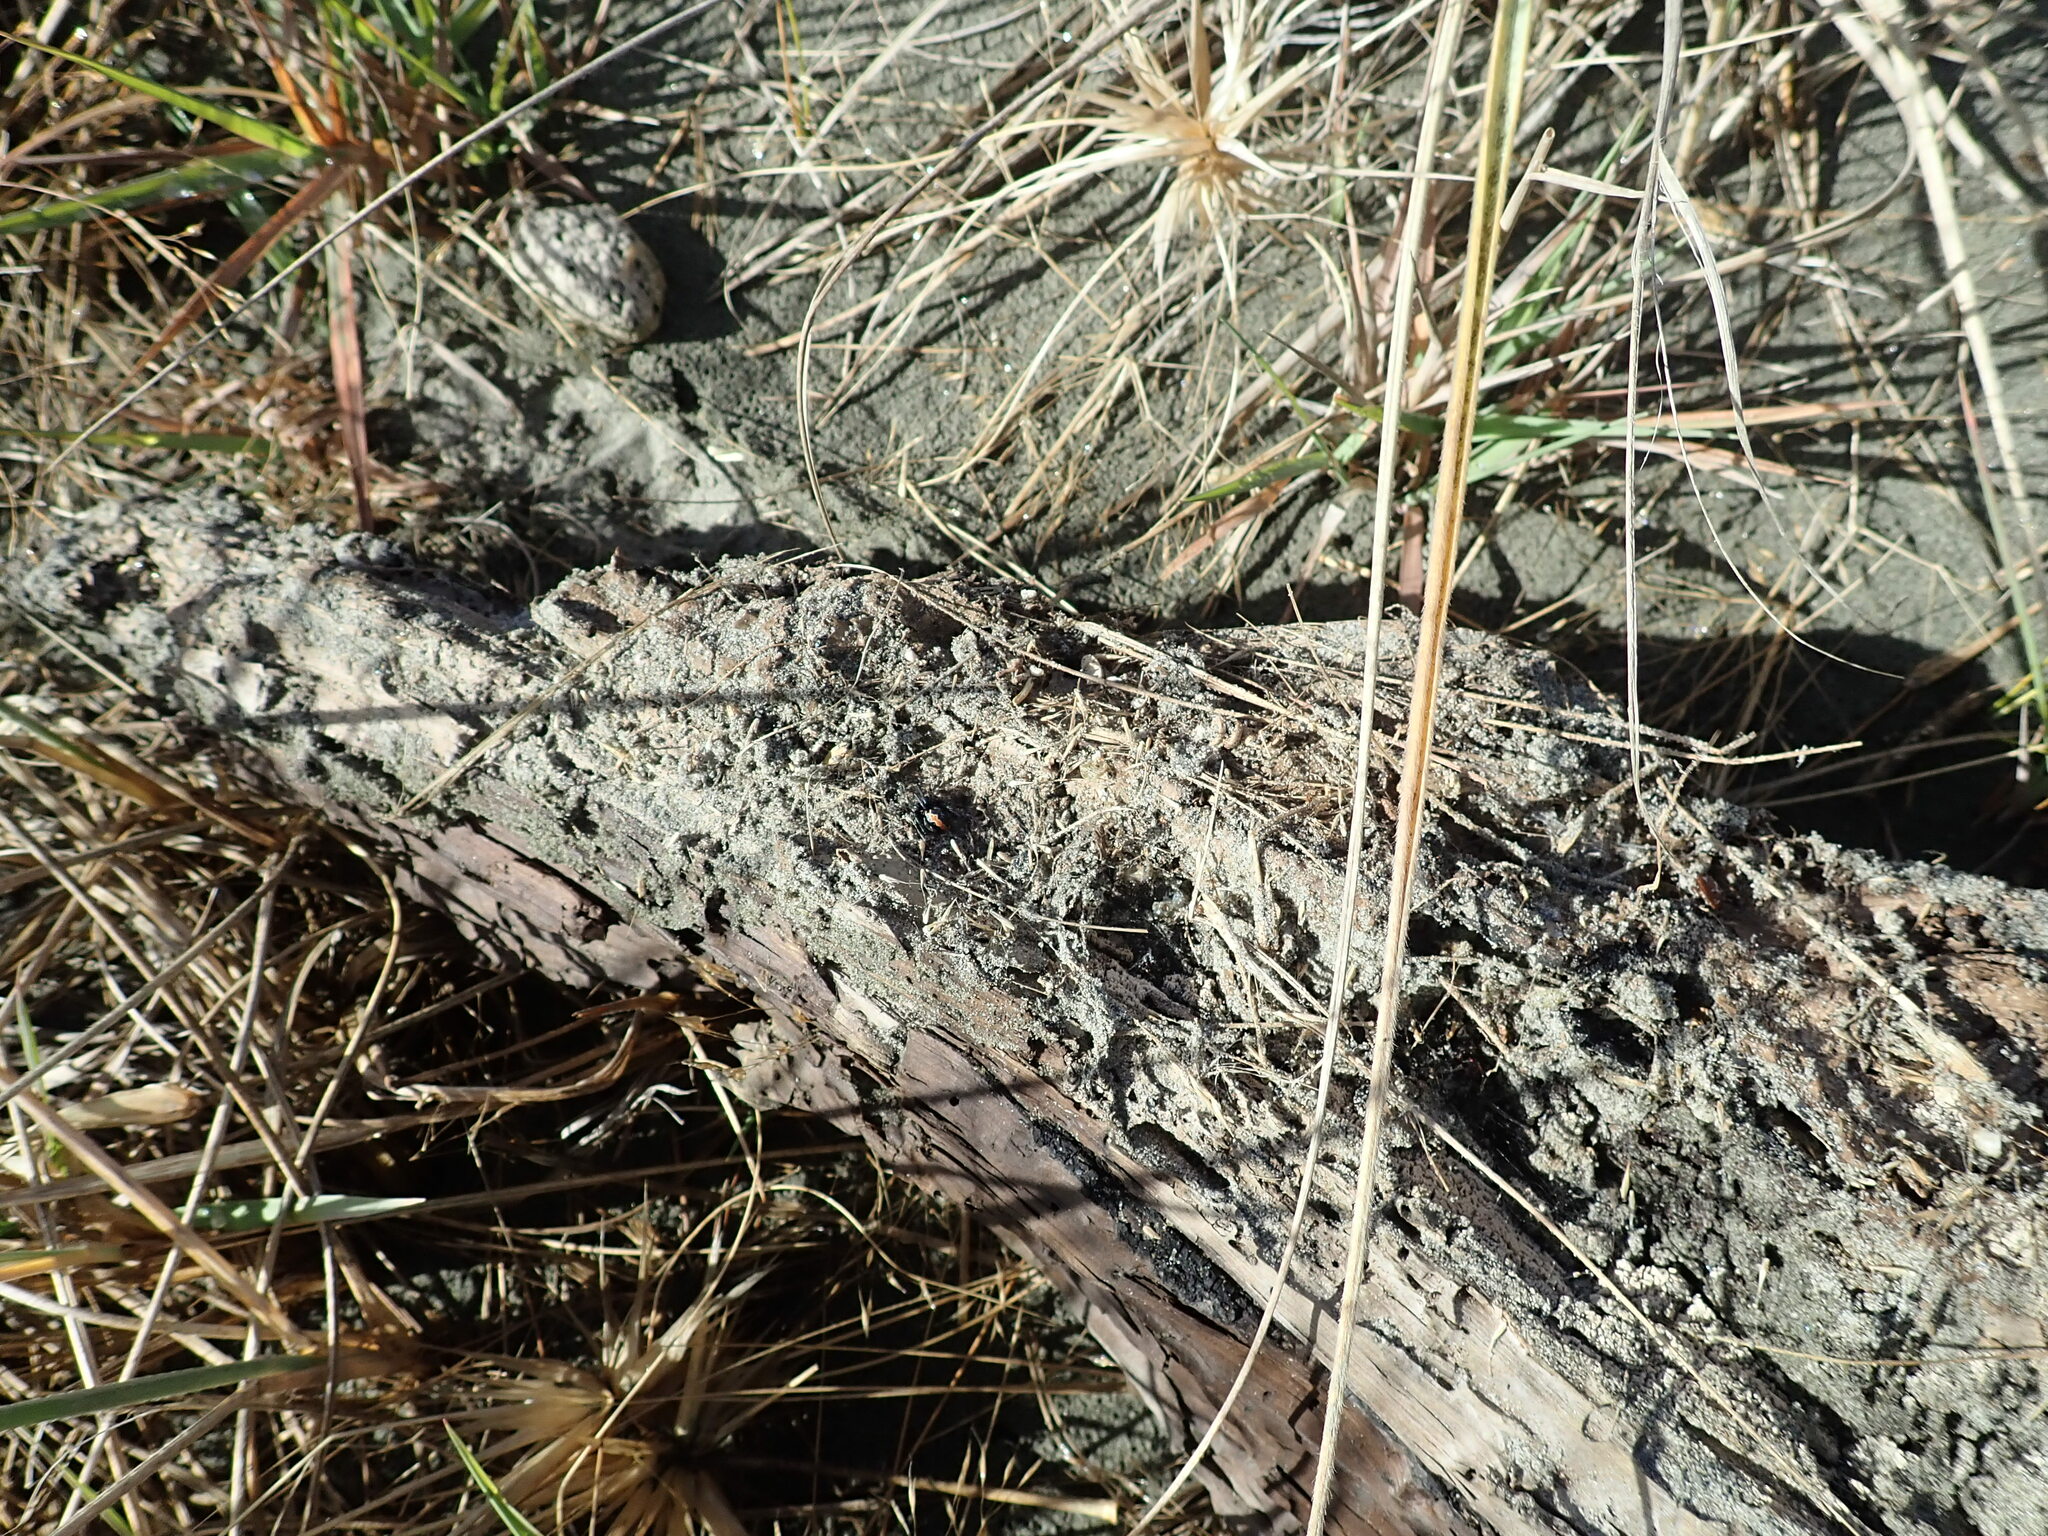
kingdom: Animalia
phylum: Arthropoda
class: Arachnida
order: Araneae
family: Theridiidae
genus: Latrodectus
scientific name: Latrodectus katipo
